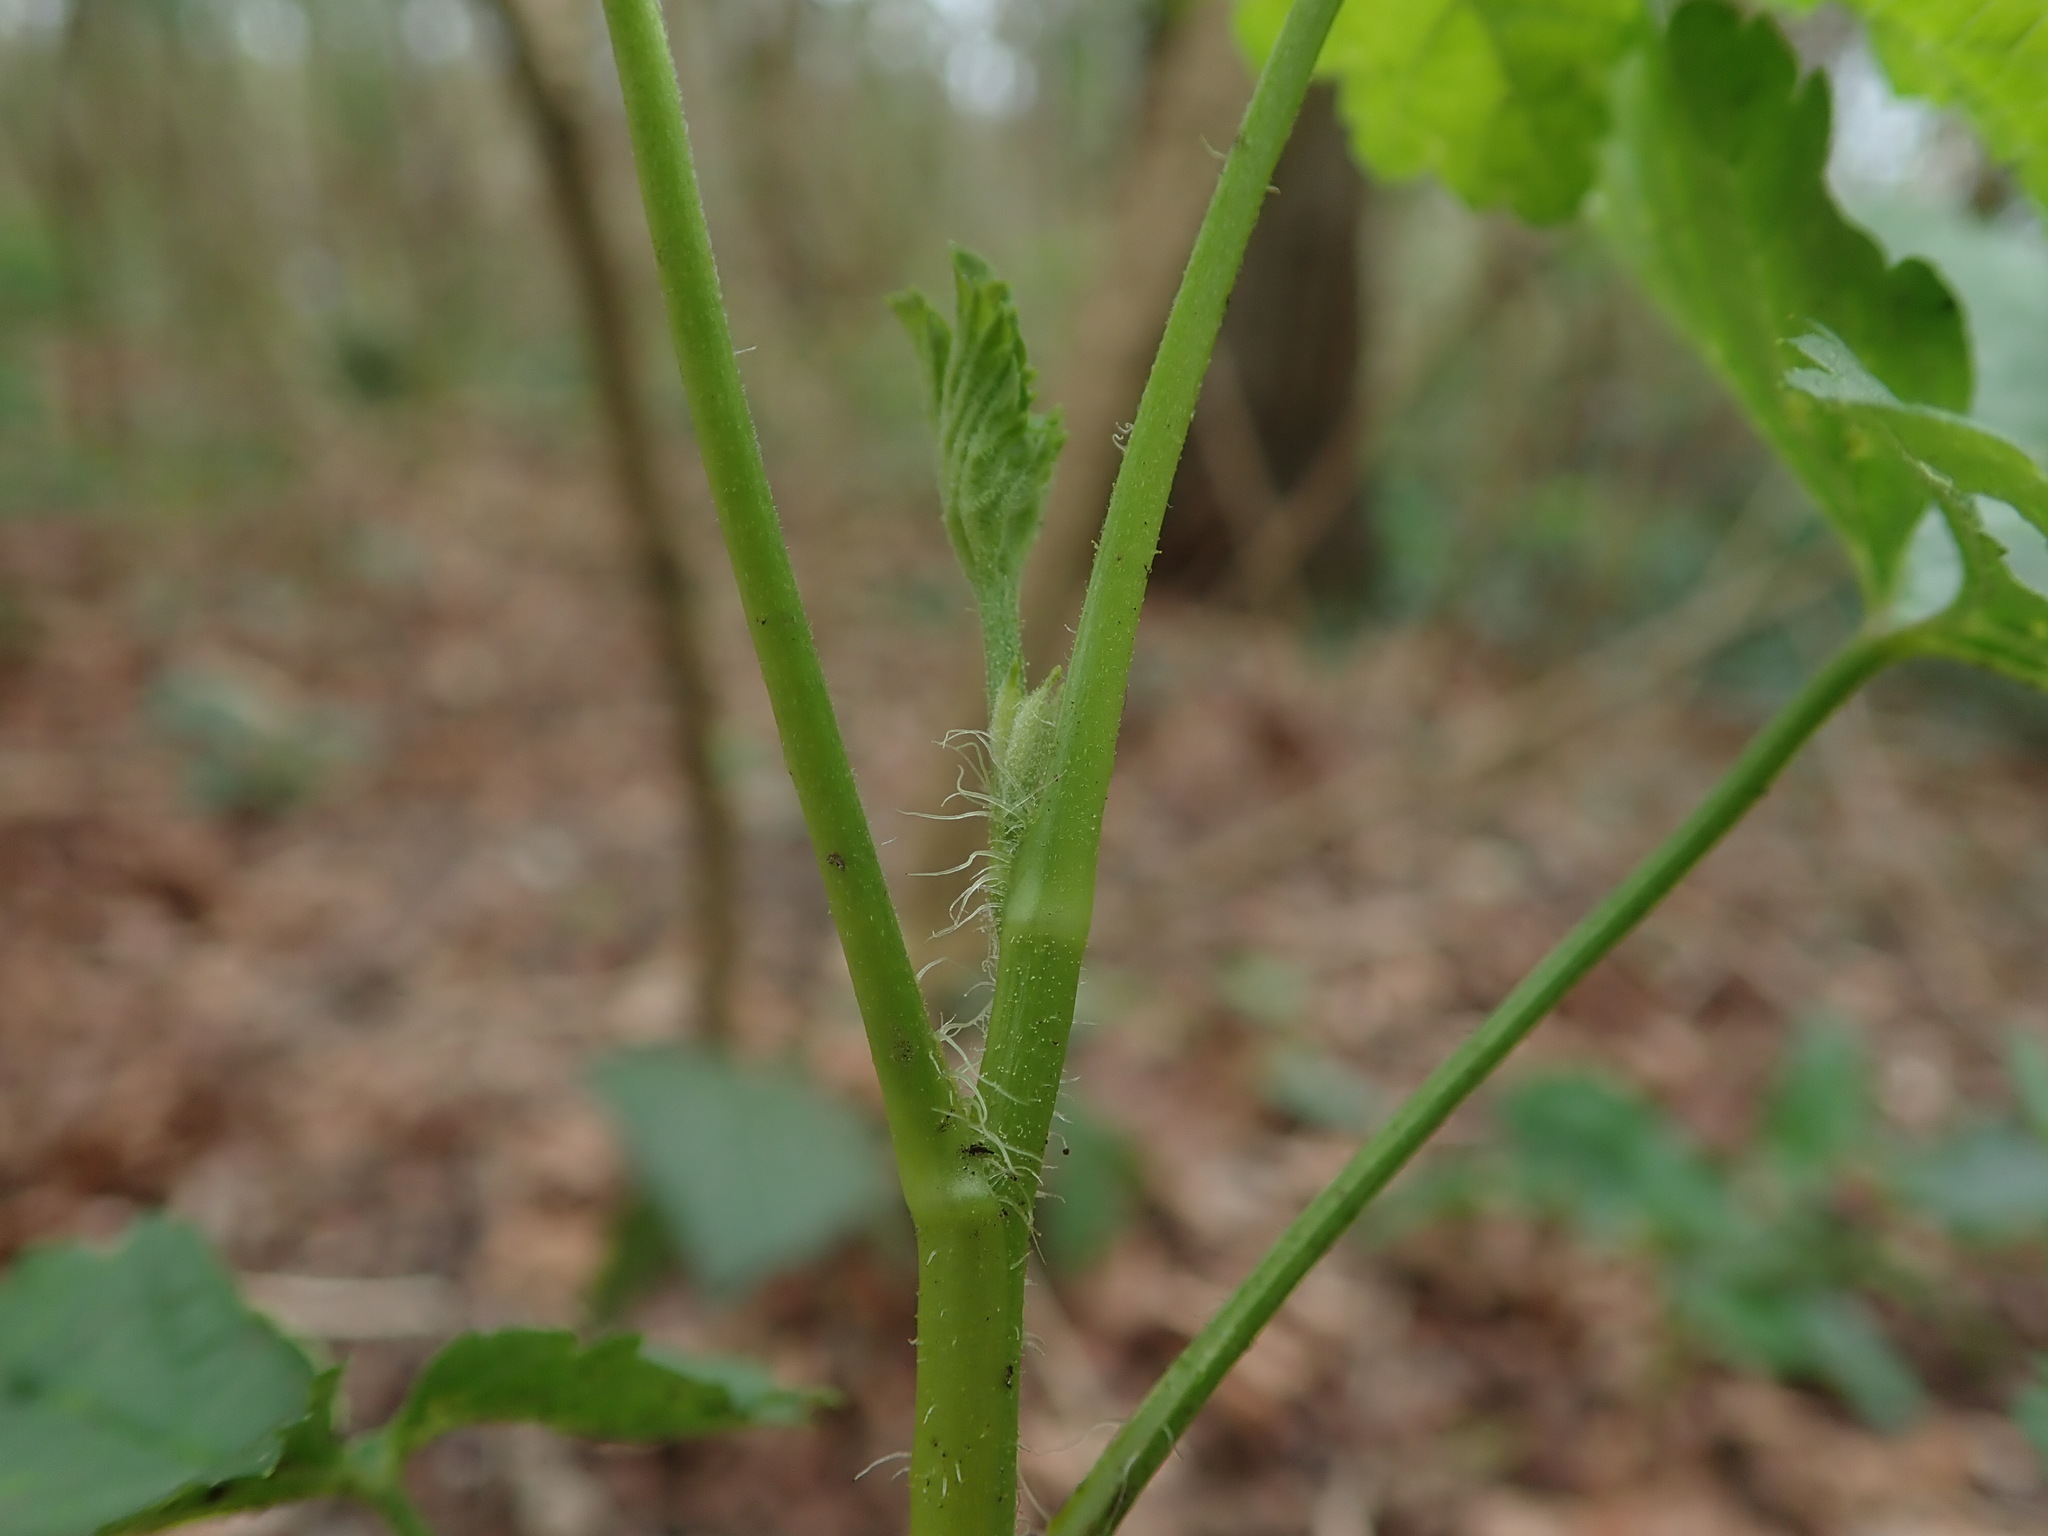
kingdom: Plantae
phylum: Tracheophyta
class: Magnoliopsida
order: Saxifragales
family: Grossulariaceae
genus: Ribes
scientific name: Ribes rubrum
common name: Red currant
